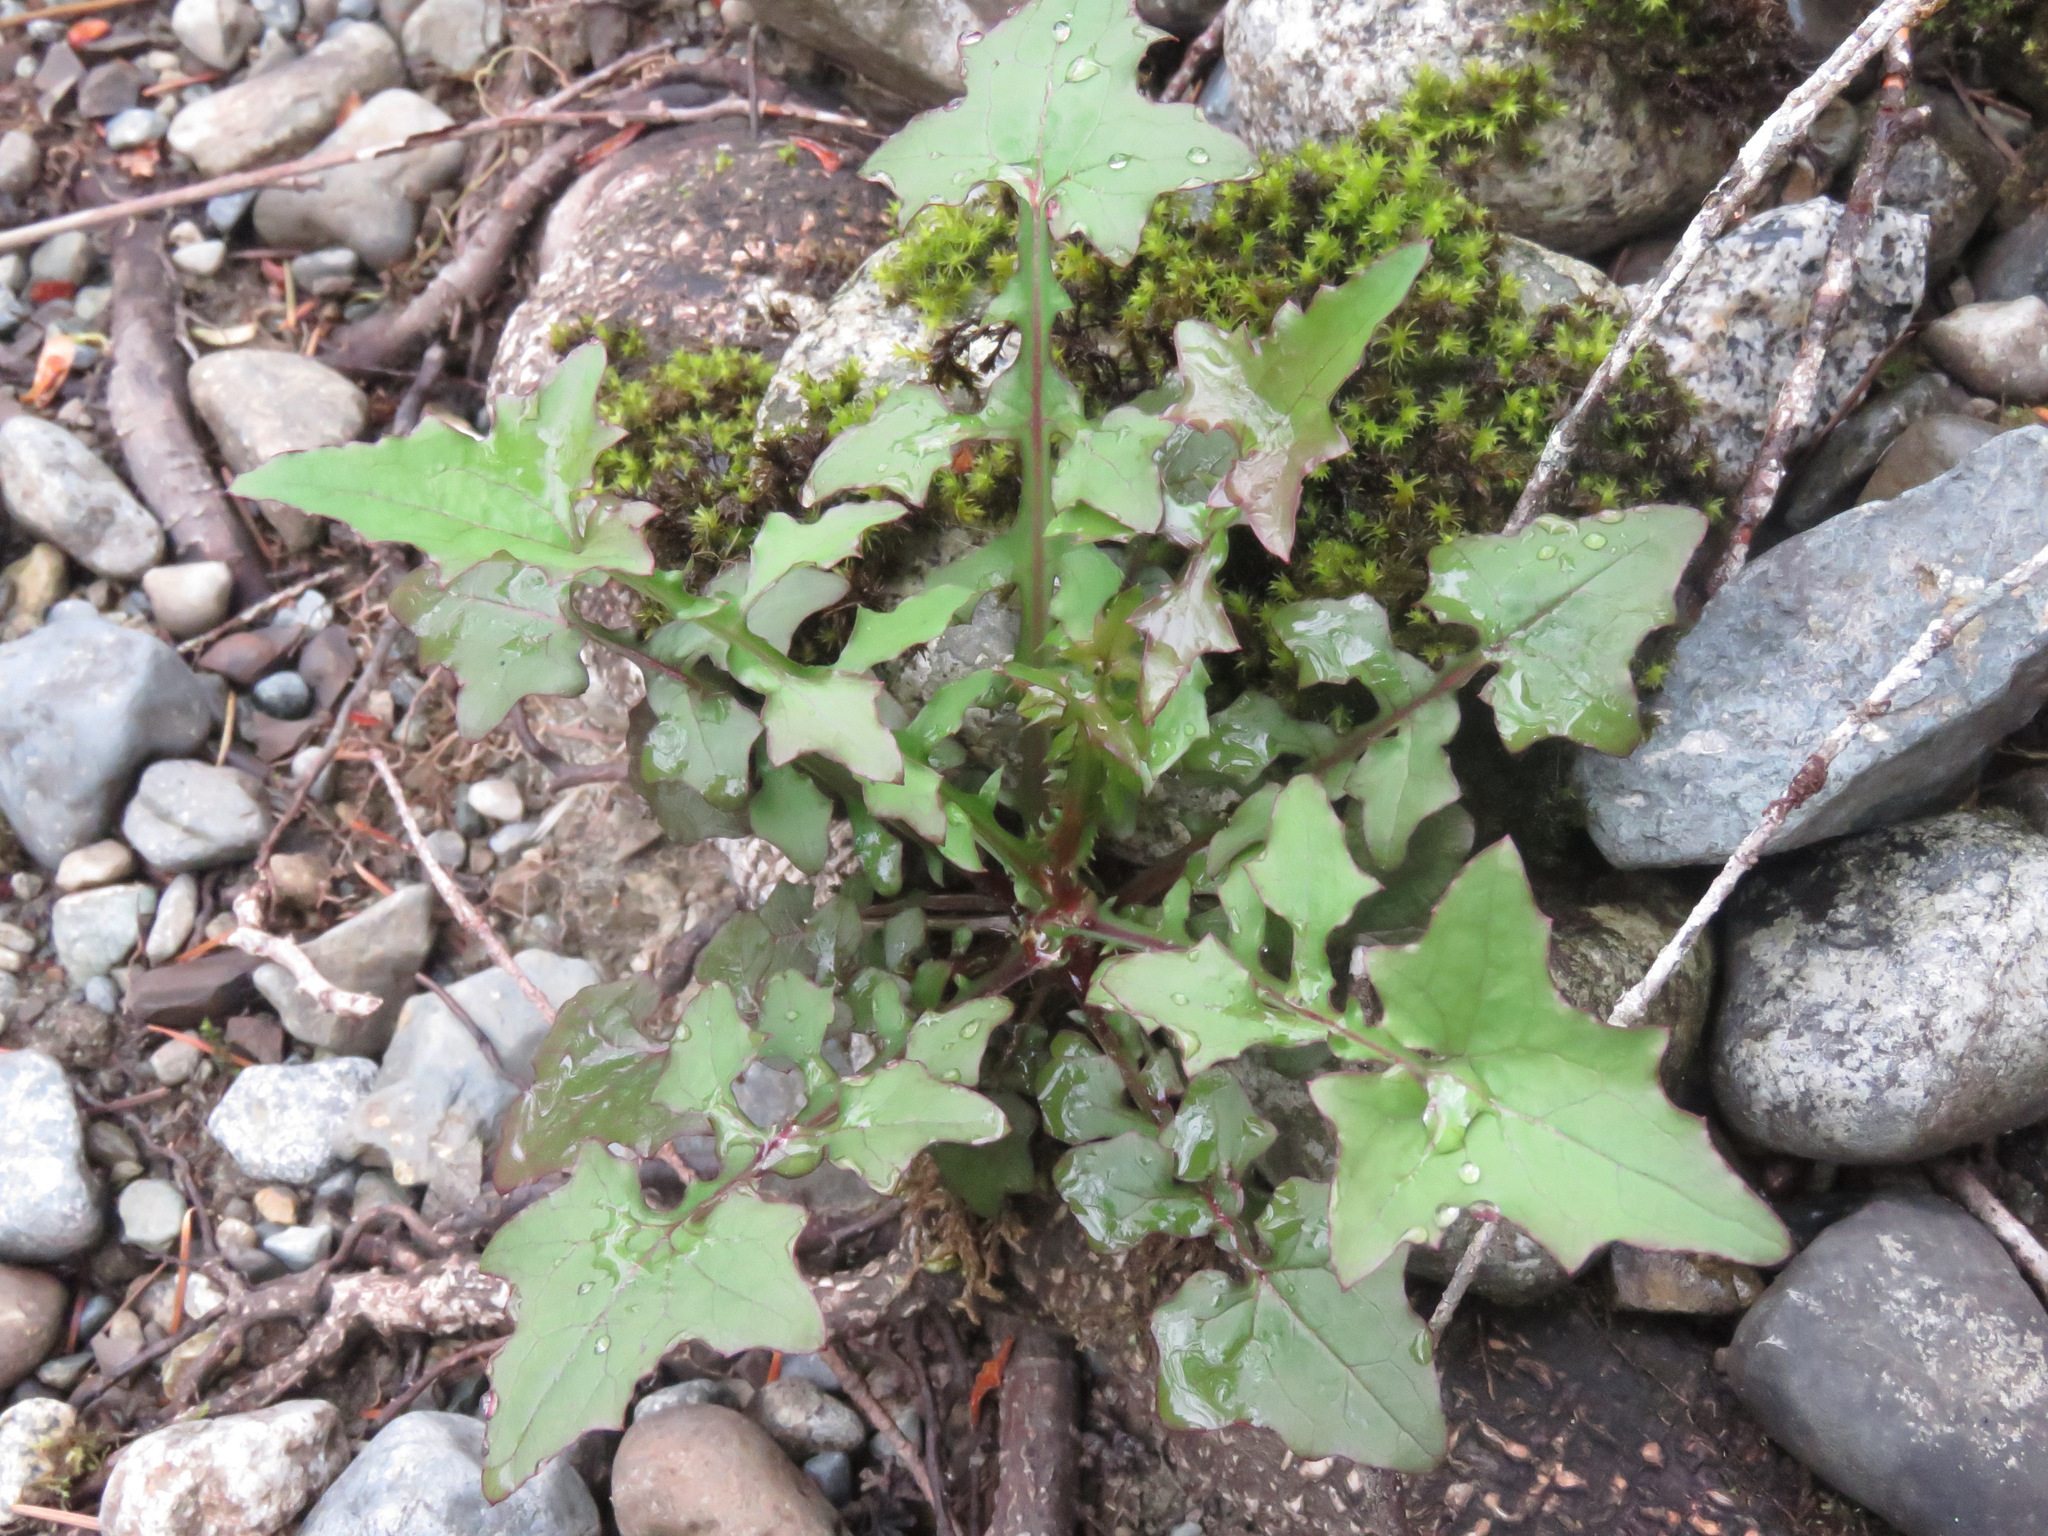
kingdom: Plantae
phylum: Tracheophyta
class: Magnoliopsida
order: Asterales
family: Asteraceae
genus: Mycelis
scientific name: Mycelis muralis
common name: Wall lettuce
